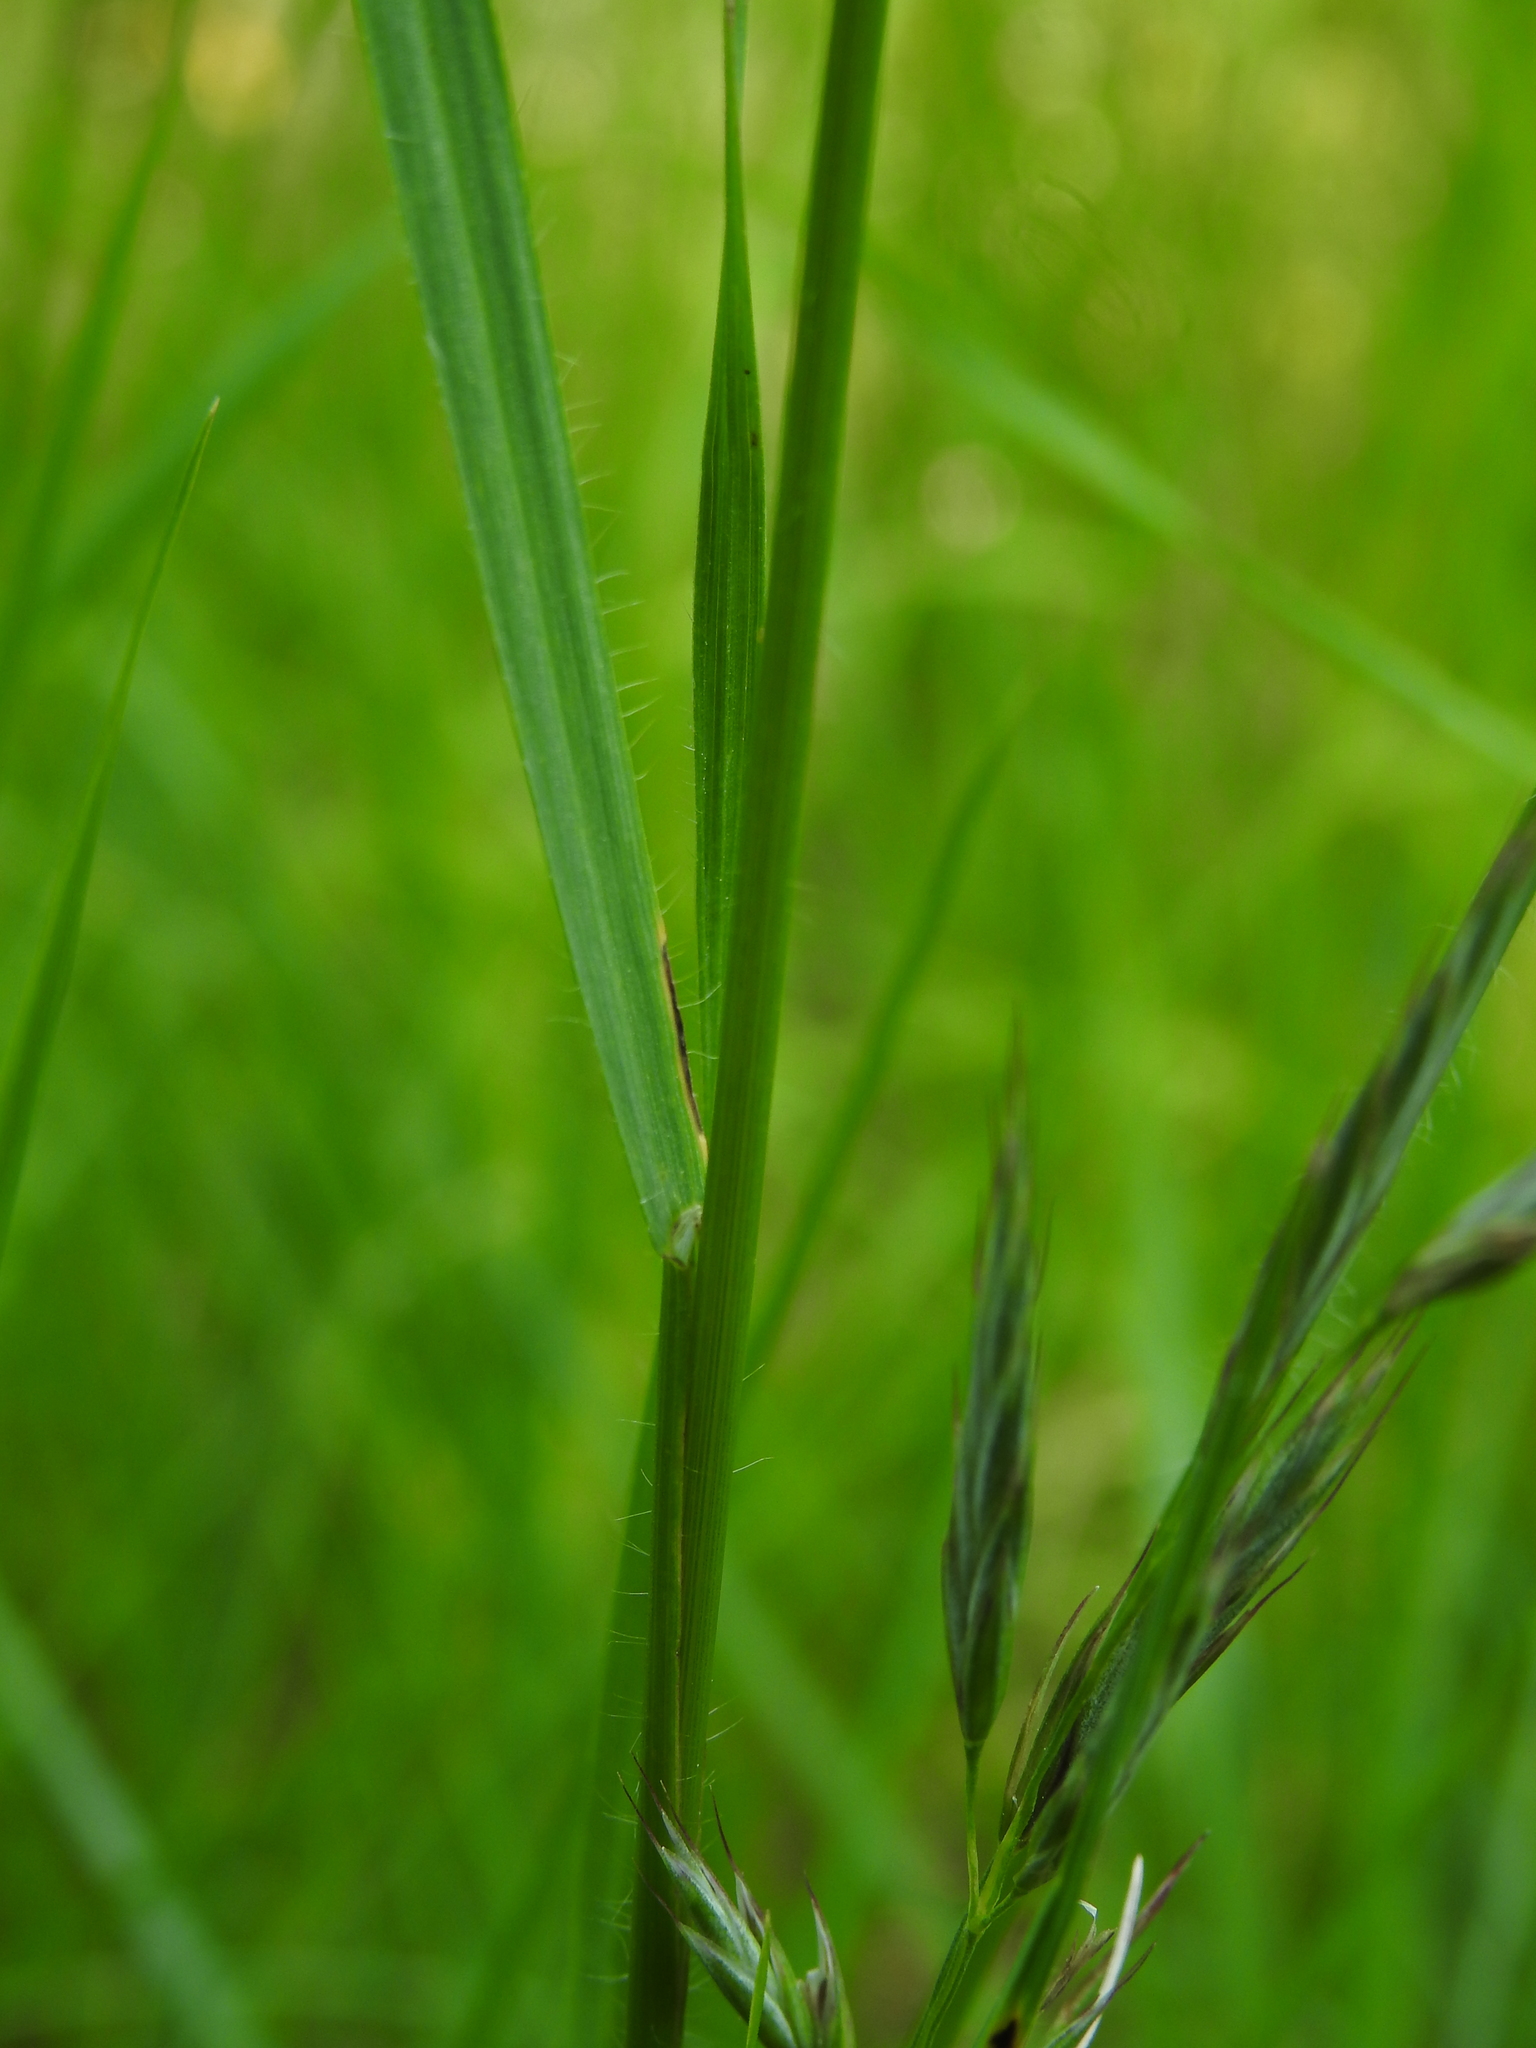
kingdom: Plantae
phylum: Tracheophyta
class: Liliopsida
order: Poales
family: Poaceae
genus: Bromus
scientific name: Bromus erectus
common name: Erect brome
